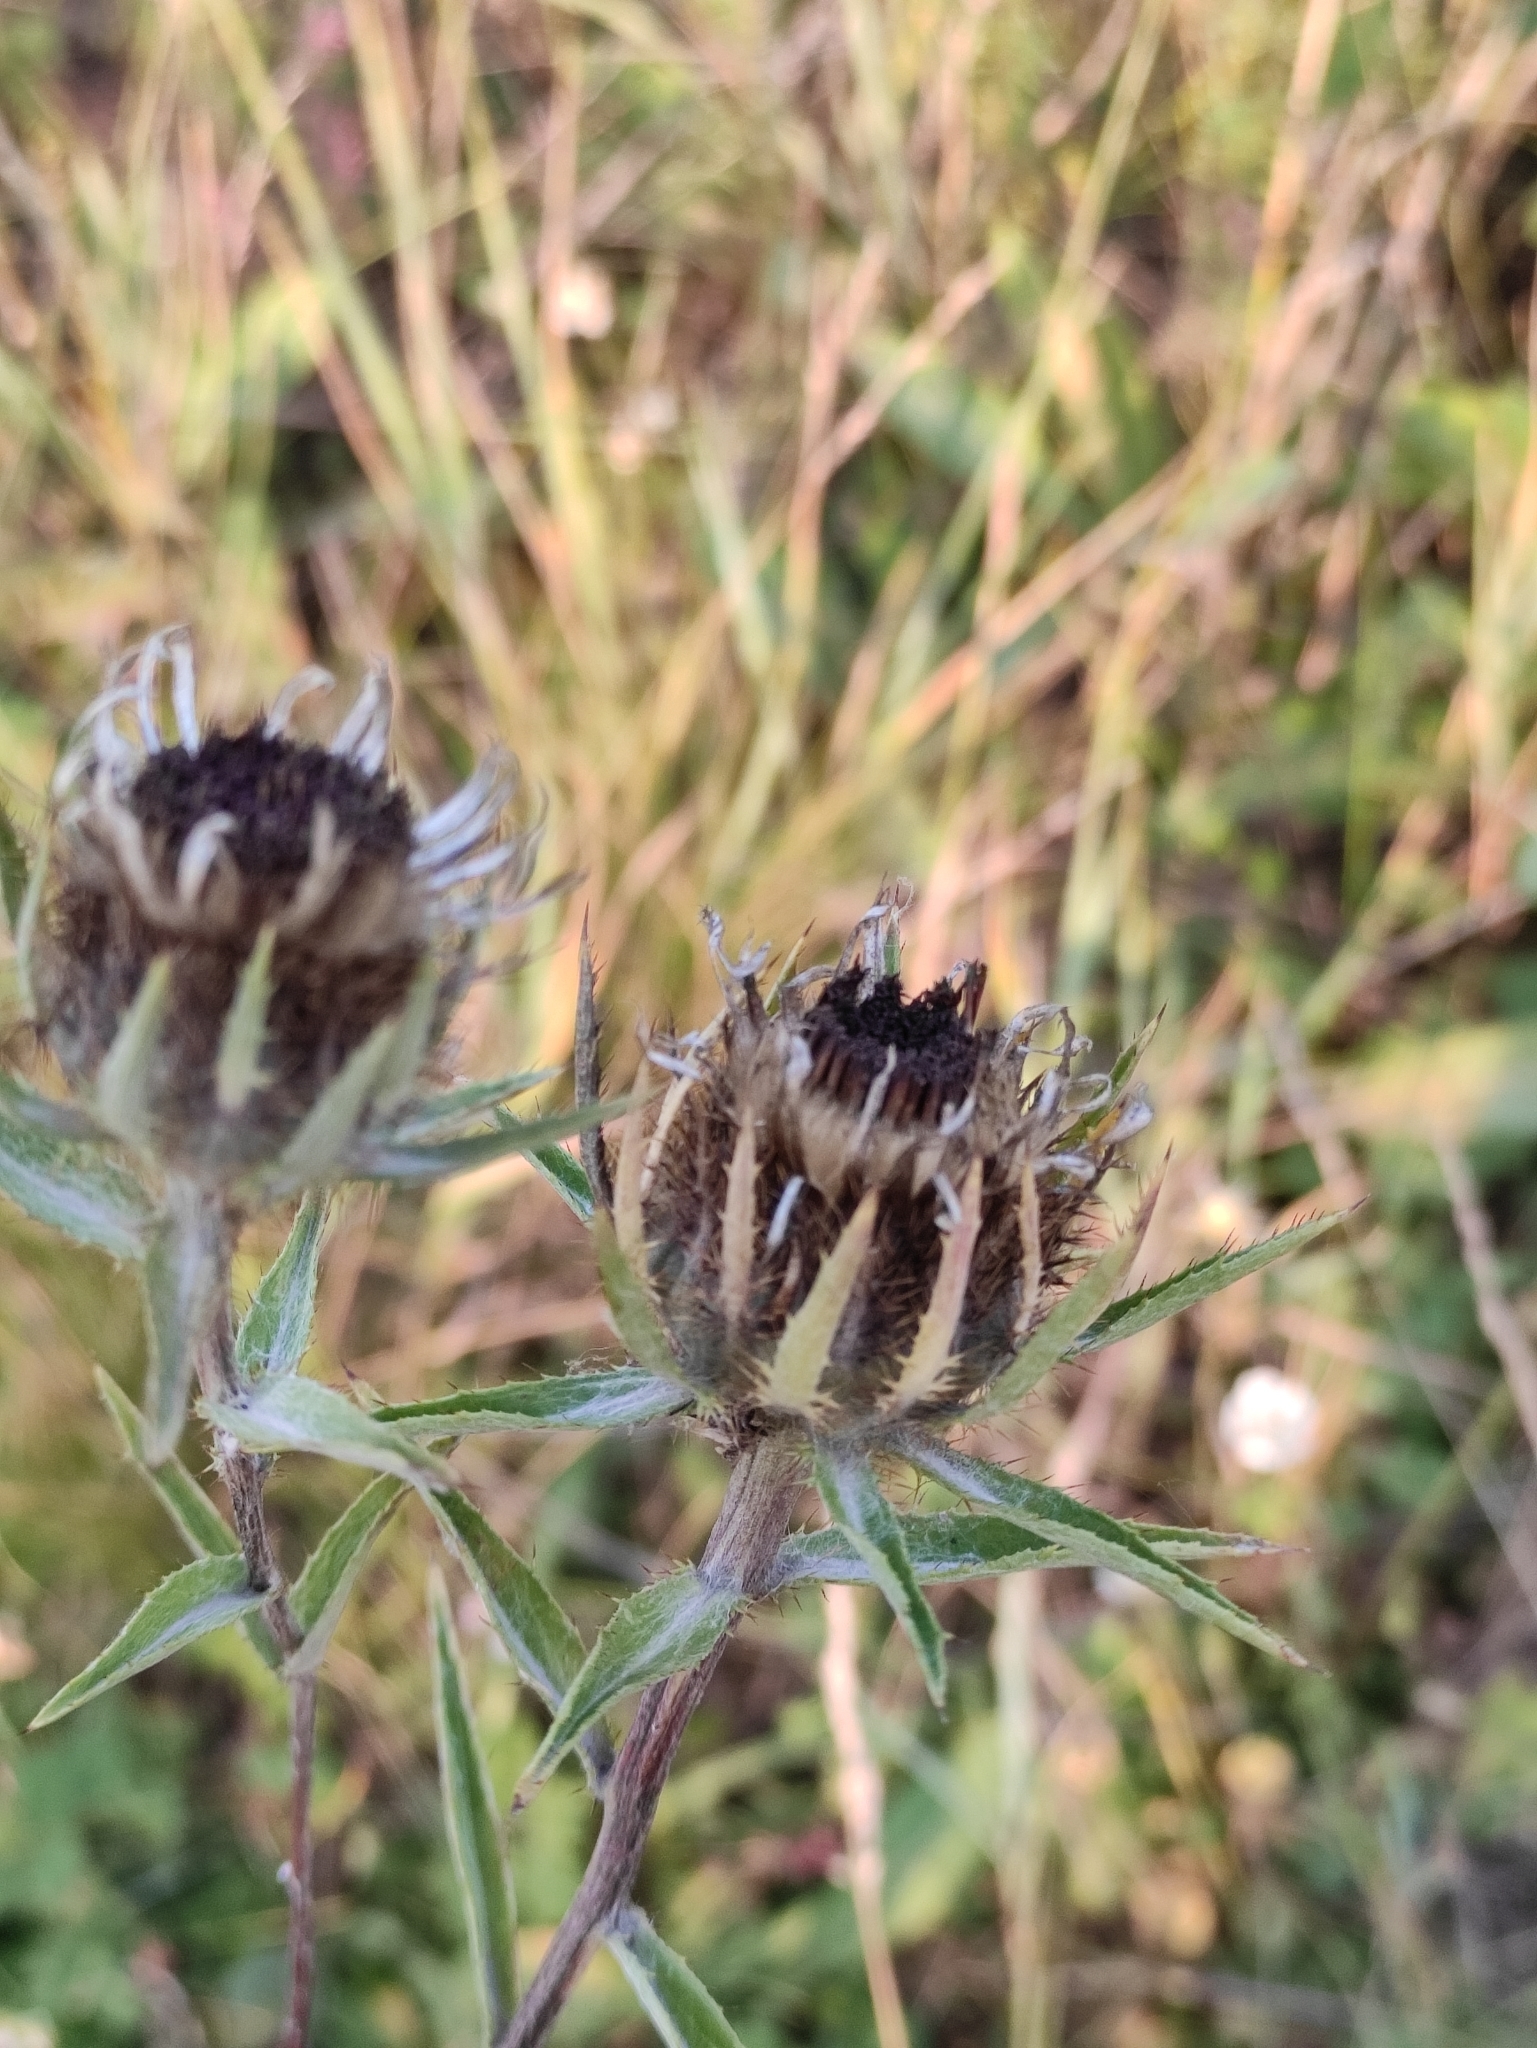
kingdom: Plantae
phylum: Tracheophyta
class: Magnoliopsida
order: Asterales
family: Asteraceae
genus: Carlina
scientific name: Carlina biebersteinii
